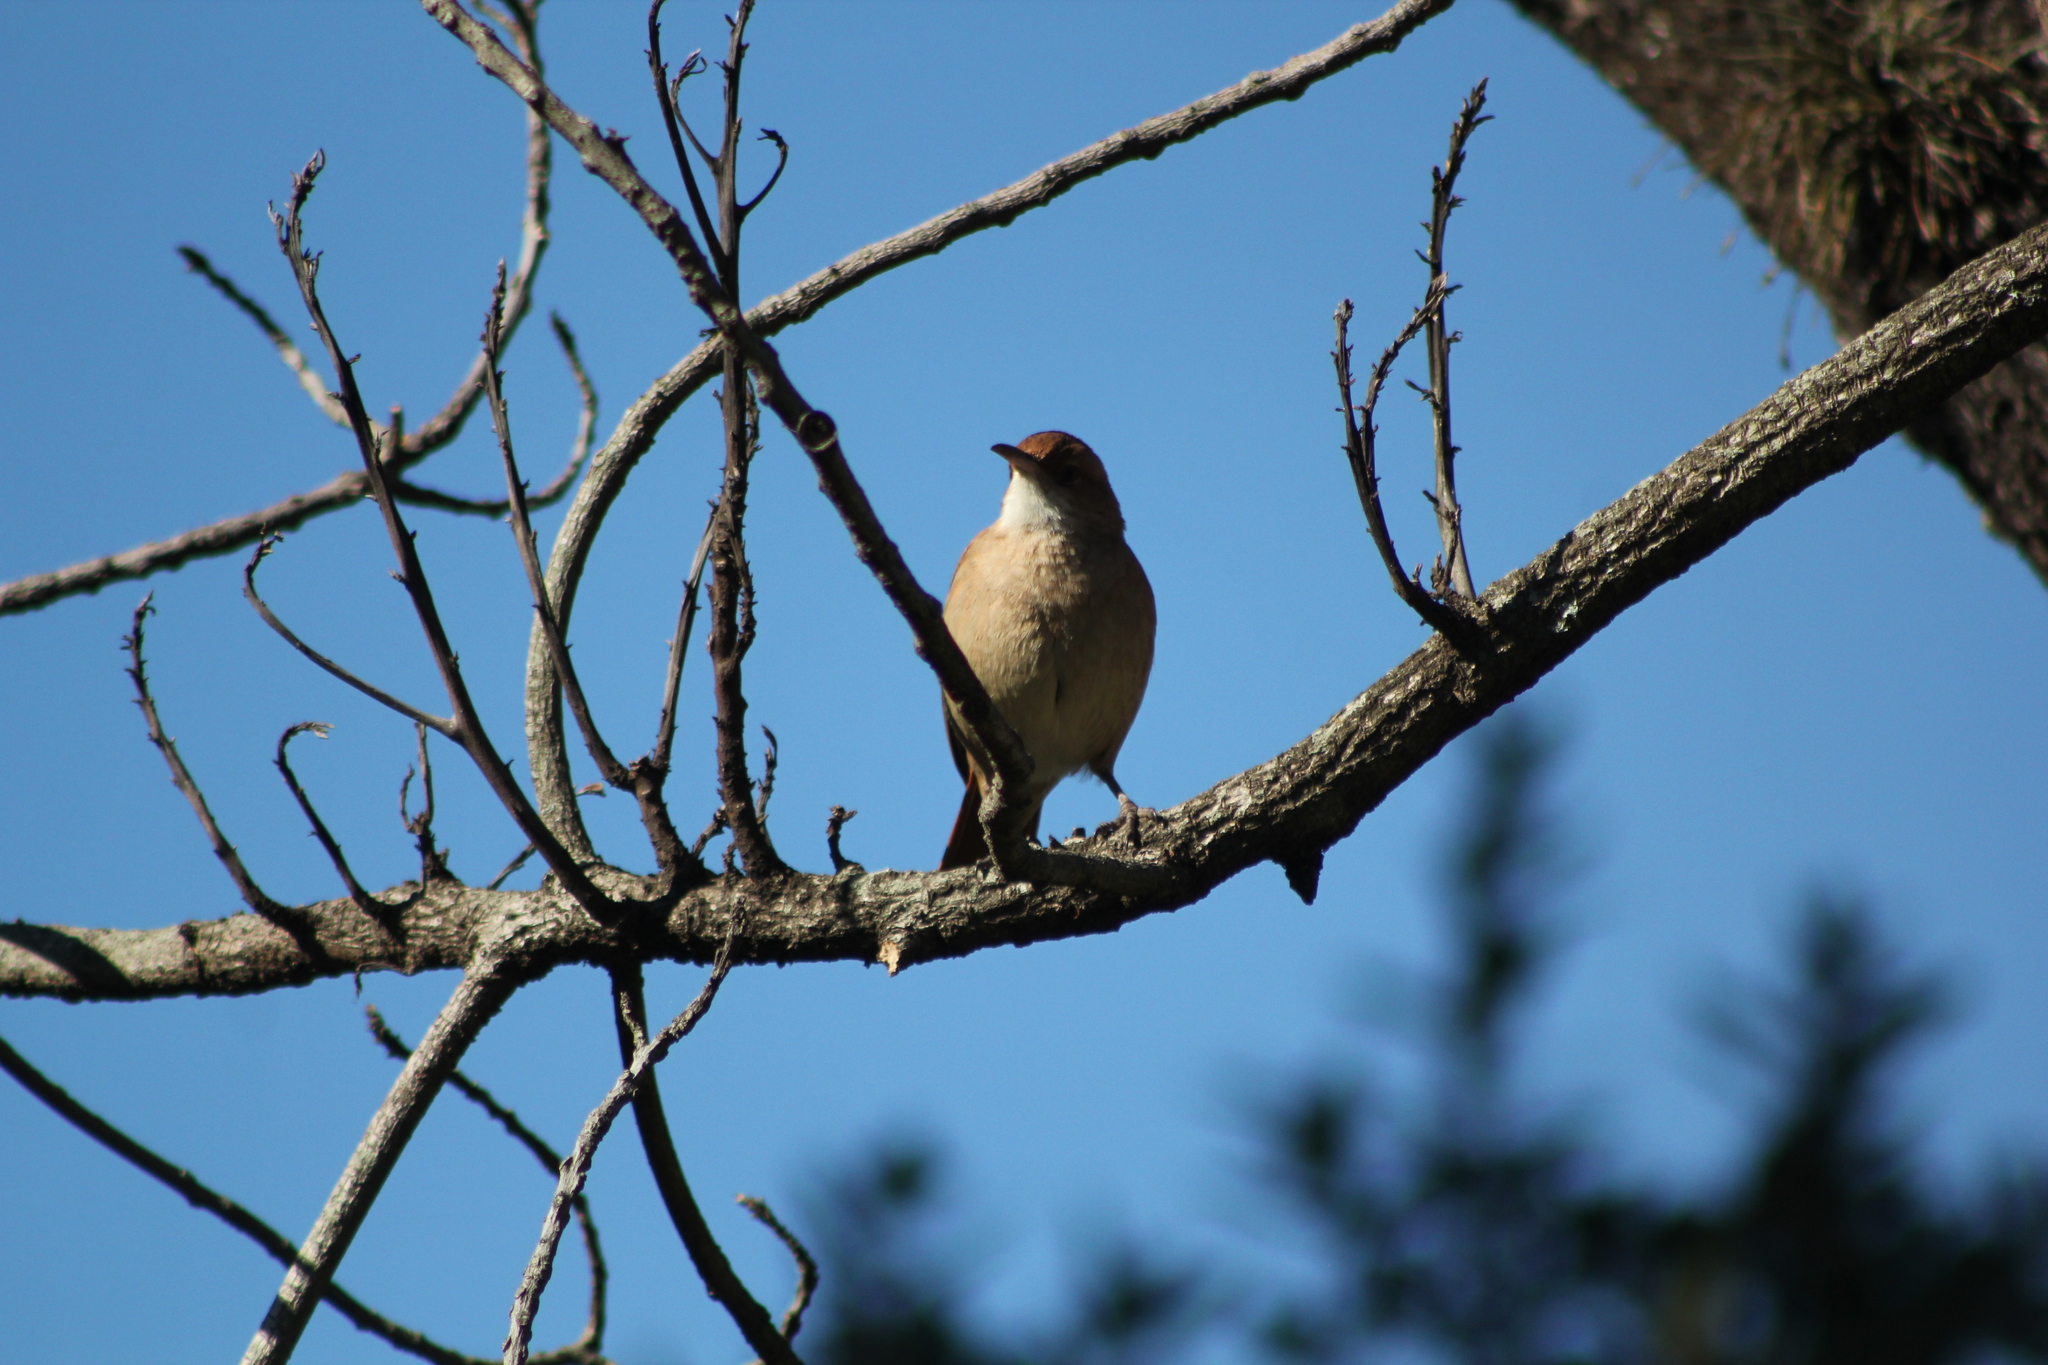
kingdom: Animalia
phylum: Chordata
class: Aves
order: Passeriformes
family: Furnariidae
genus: Furnarius
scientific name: Furnarius rufus
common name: Rufous hornero
